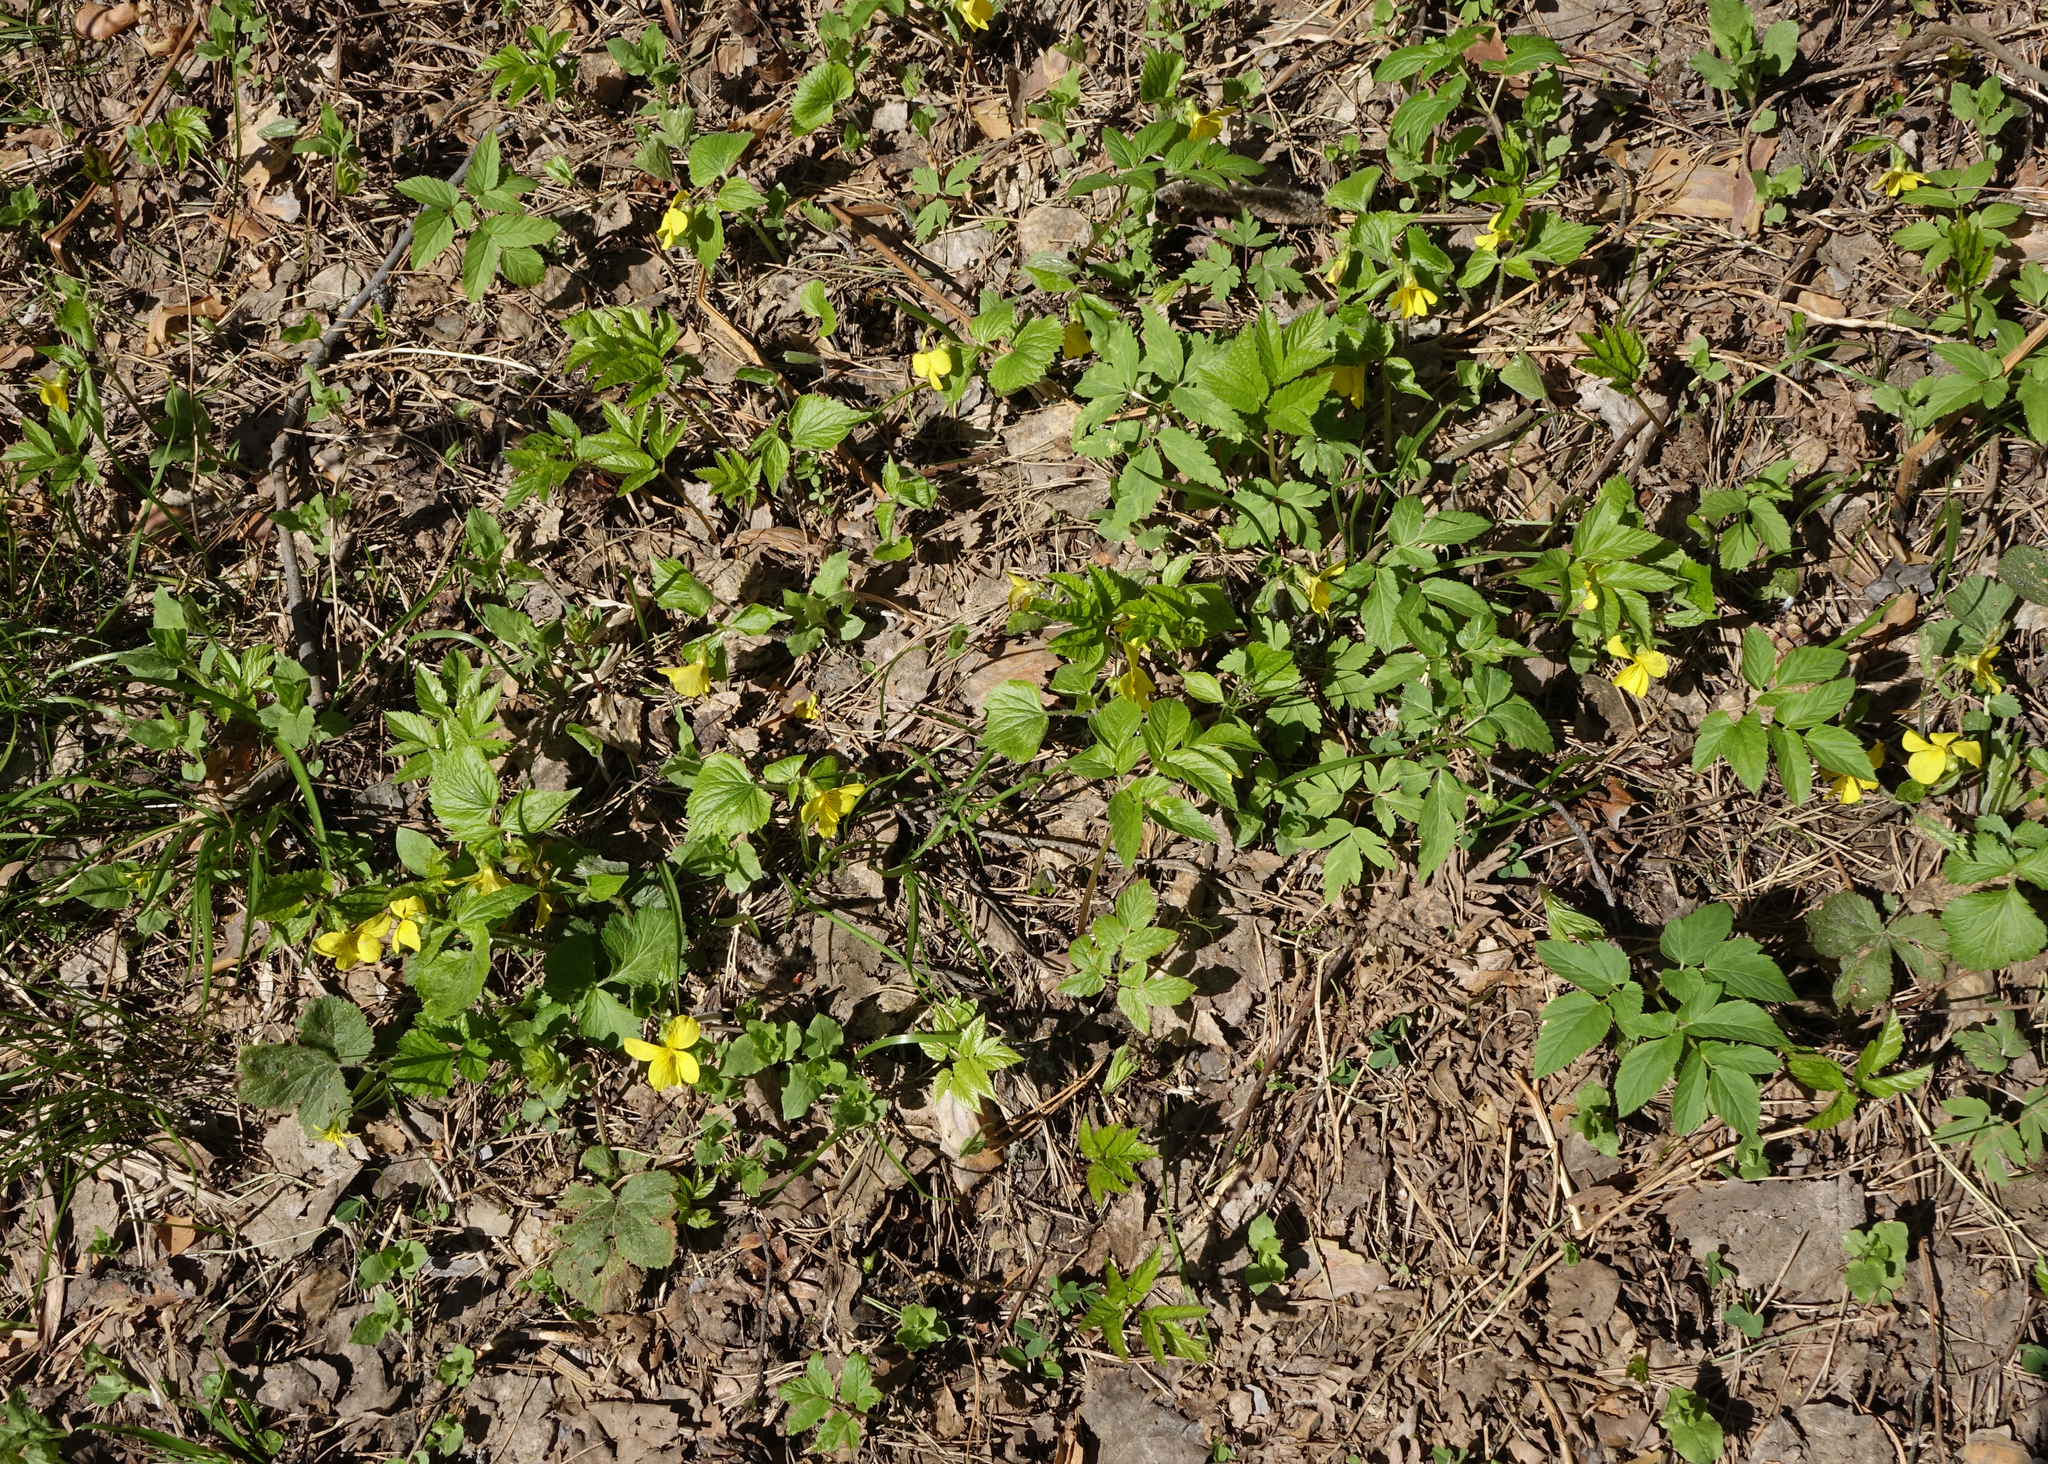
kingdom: Plantae
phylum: Tracheophyta
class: Magnoliopsida
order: Malpighiales
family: Violaceae
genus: Viola
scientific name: Viola uniflora
